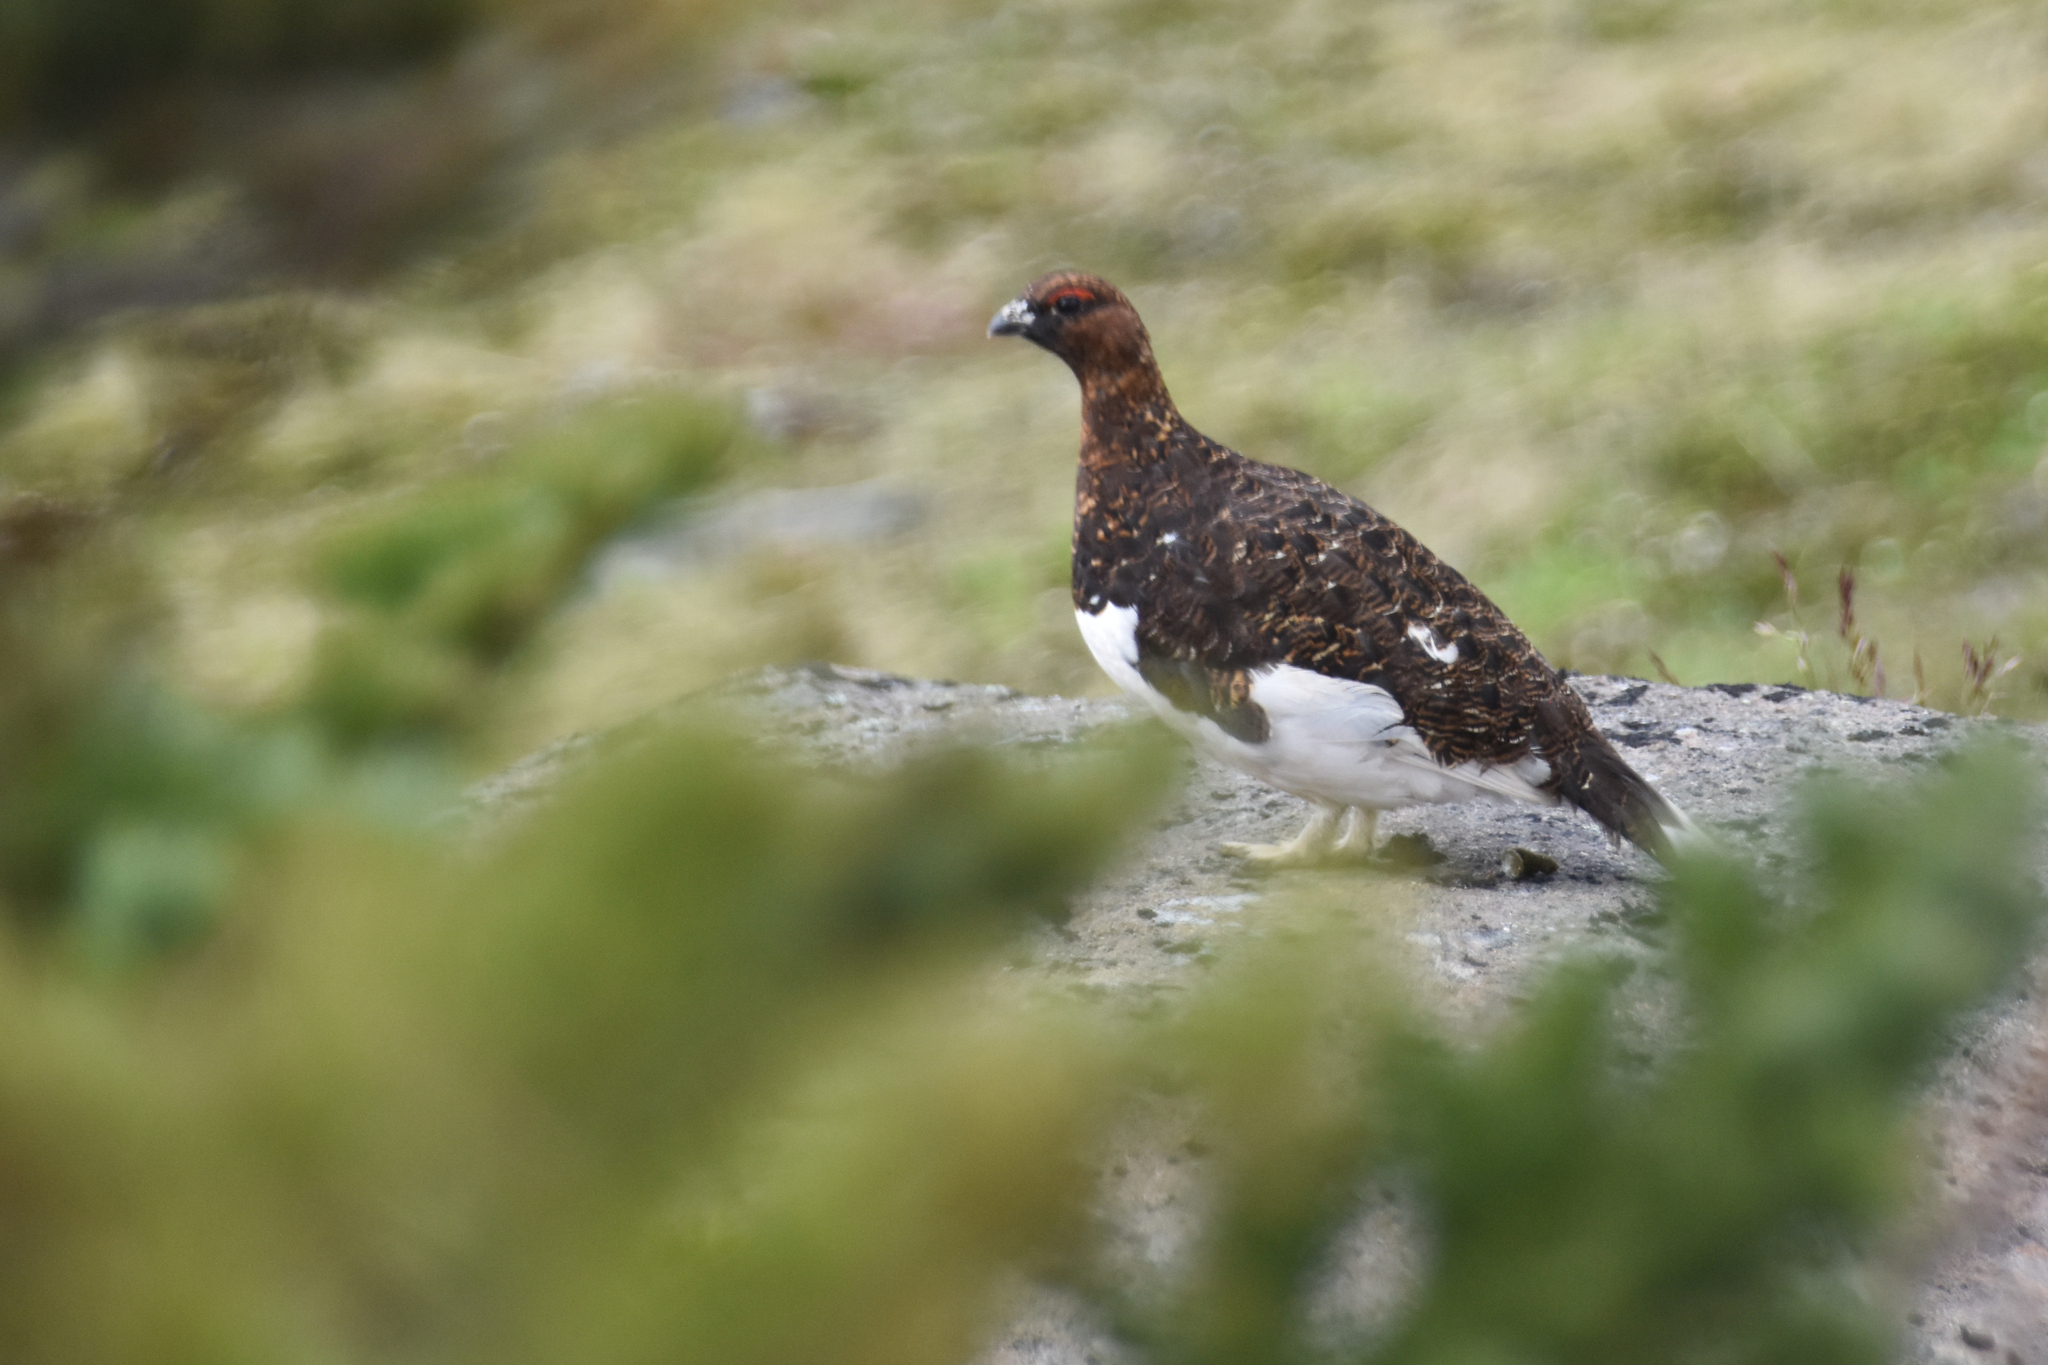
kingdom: Animalia
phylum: Chordata
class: Aves
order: Galliformes
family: Phasianidae
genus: Lagopus
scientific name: Lagopus lagopus
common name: Willow ptarmigan
